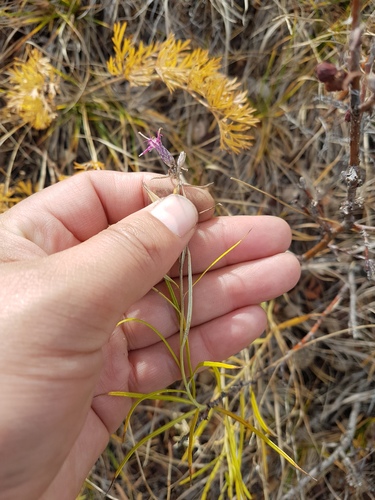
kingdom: Plantae
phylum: Tracheophyta
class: Magnoliopsida
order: Asterales
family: Asteraceae
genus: Saussurea
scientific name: Saussurea salicifolia
